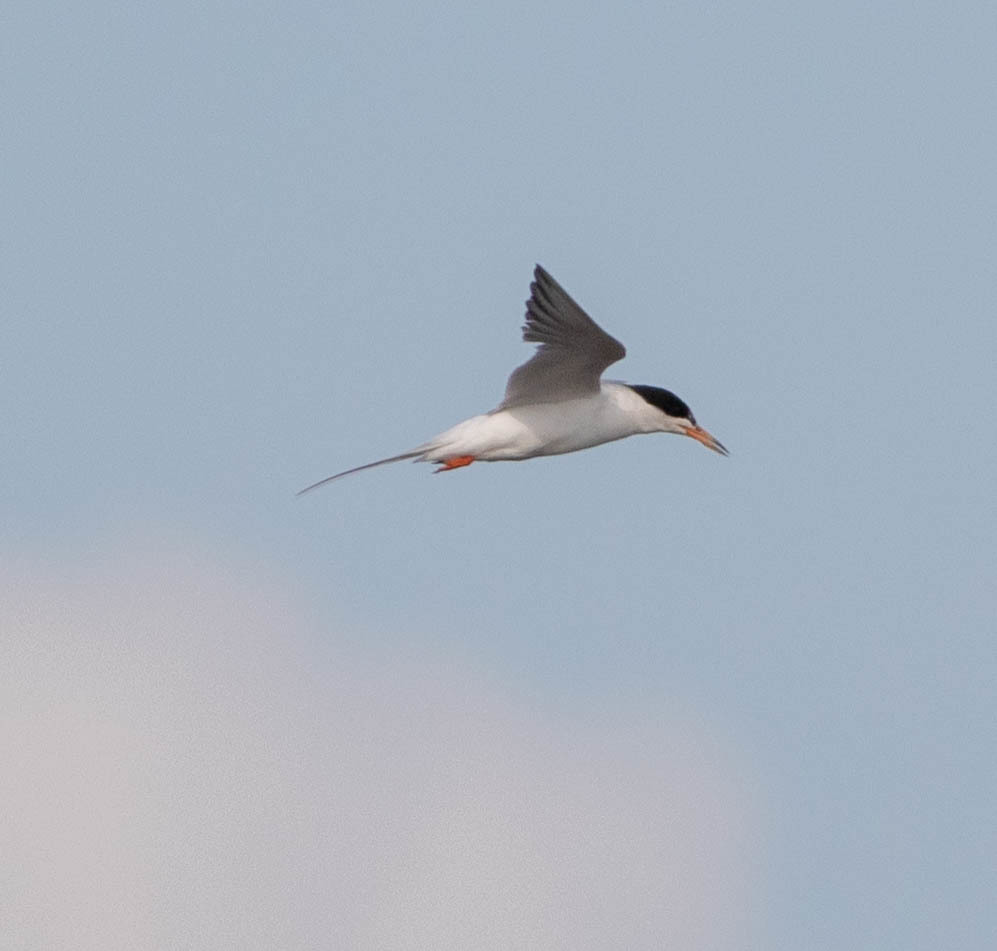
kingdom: Animalia
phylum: Chordata
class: Aves
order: Charadriiformes
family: Laridae
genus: Sterna
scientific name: Sterna forsteri
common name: Forster's tern
